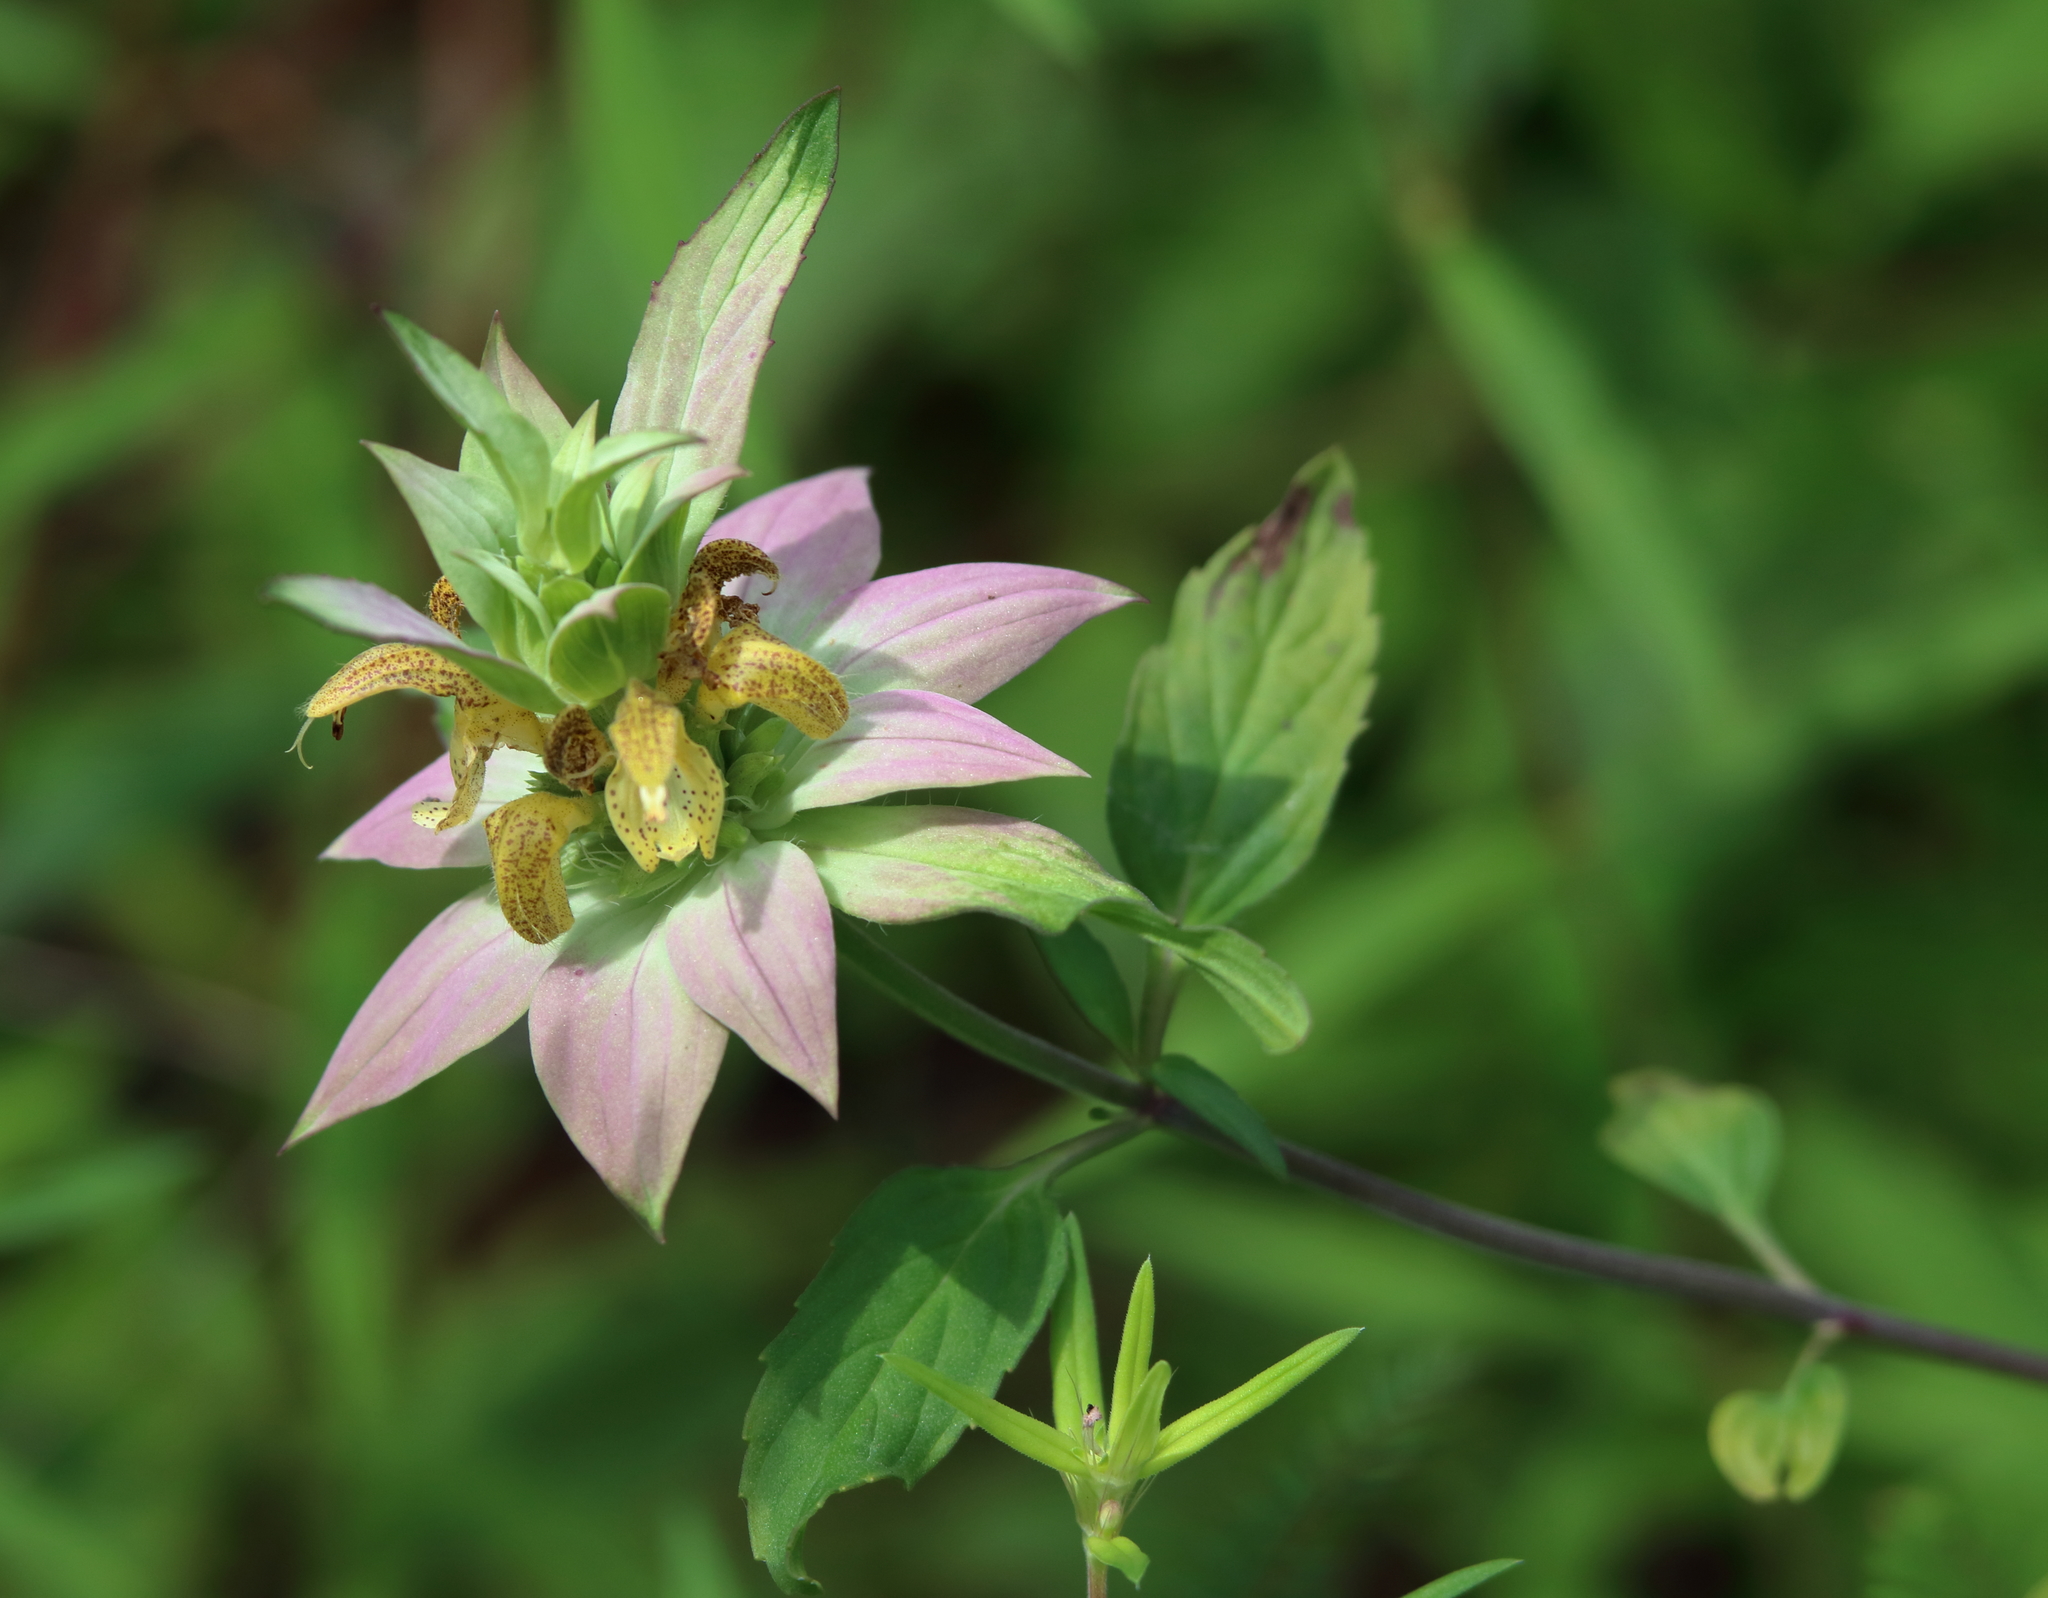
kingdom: Plantae
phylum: Tracheophyta
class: Magnoliopsida
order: Lamiales
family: Lamiaceae
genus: Monarda
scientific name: Monarda punctata
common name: Dotted monarda
